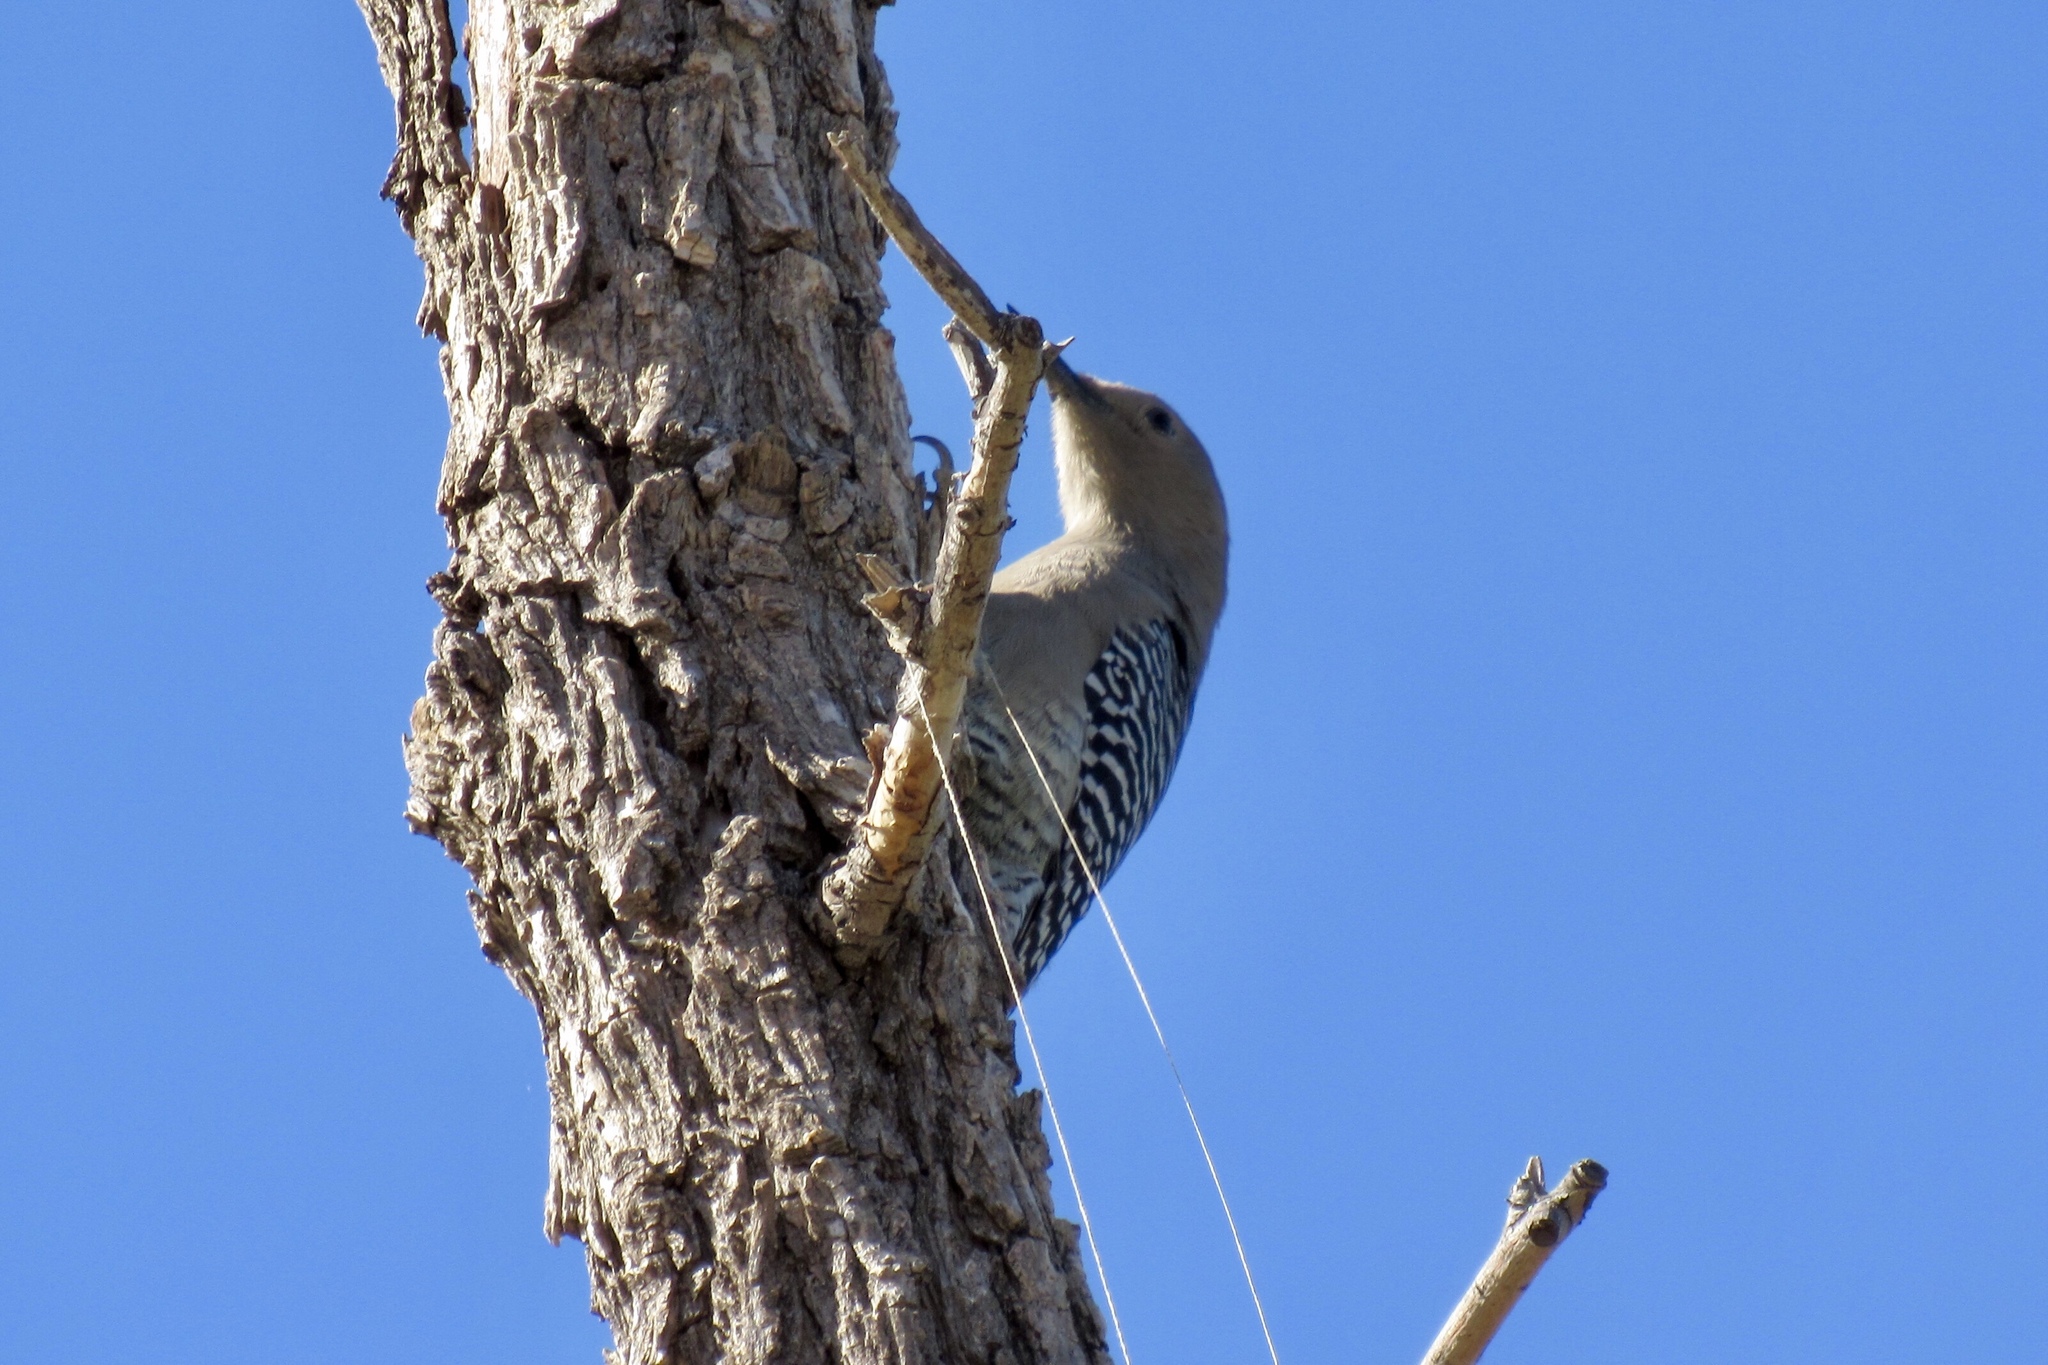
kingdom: Animalia
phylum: Chordata
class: Aves
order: Piciformes
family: Picidae
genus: Melanerpes
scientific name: Melanerpes uropygialis
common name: Gila woodpecker
